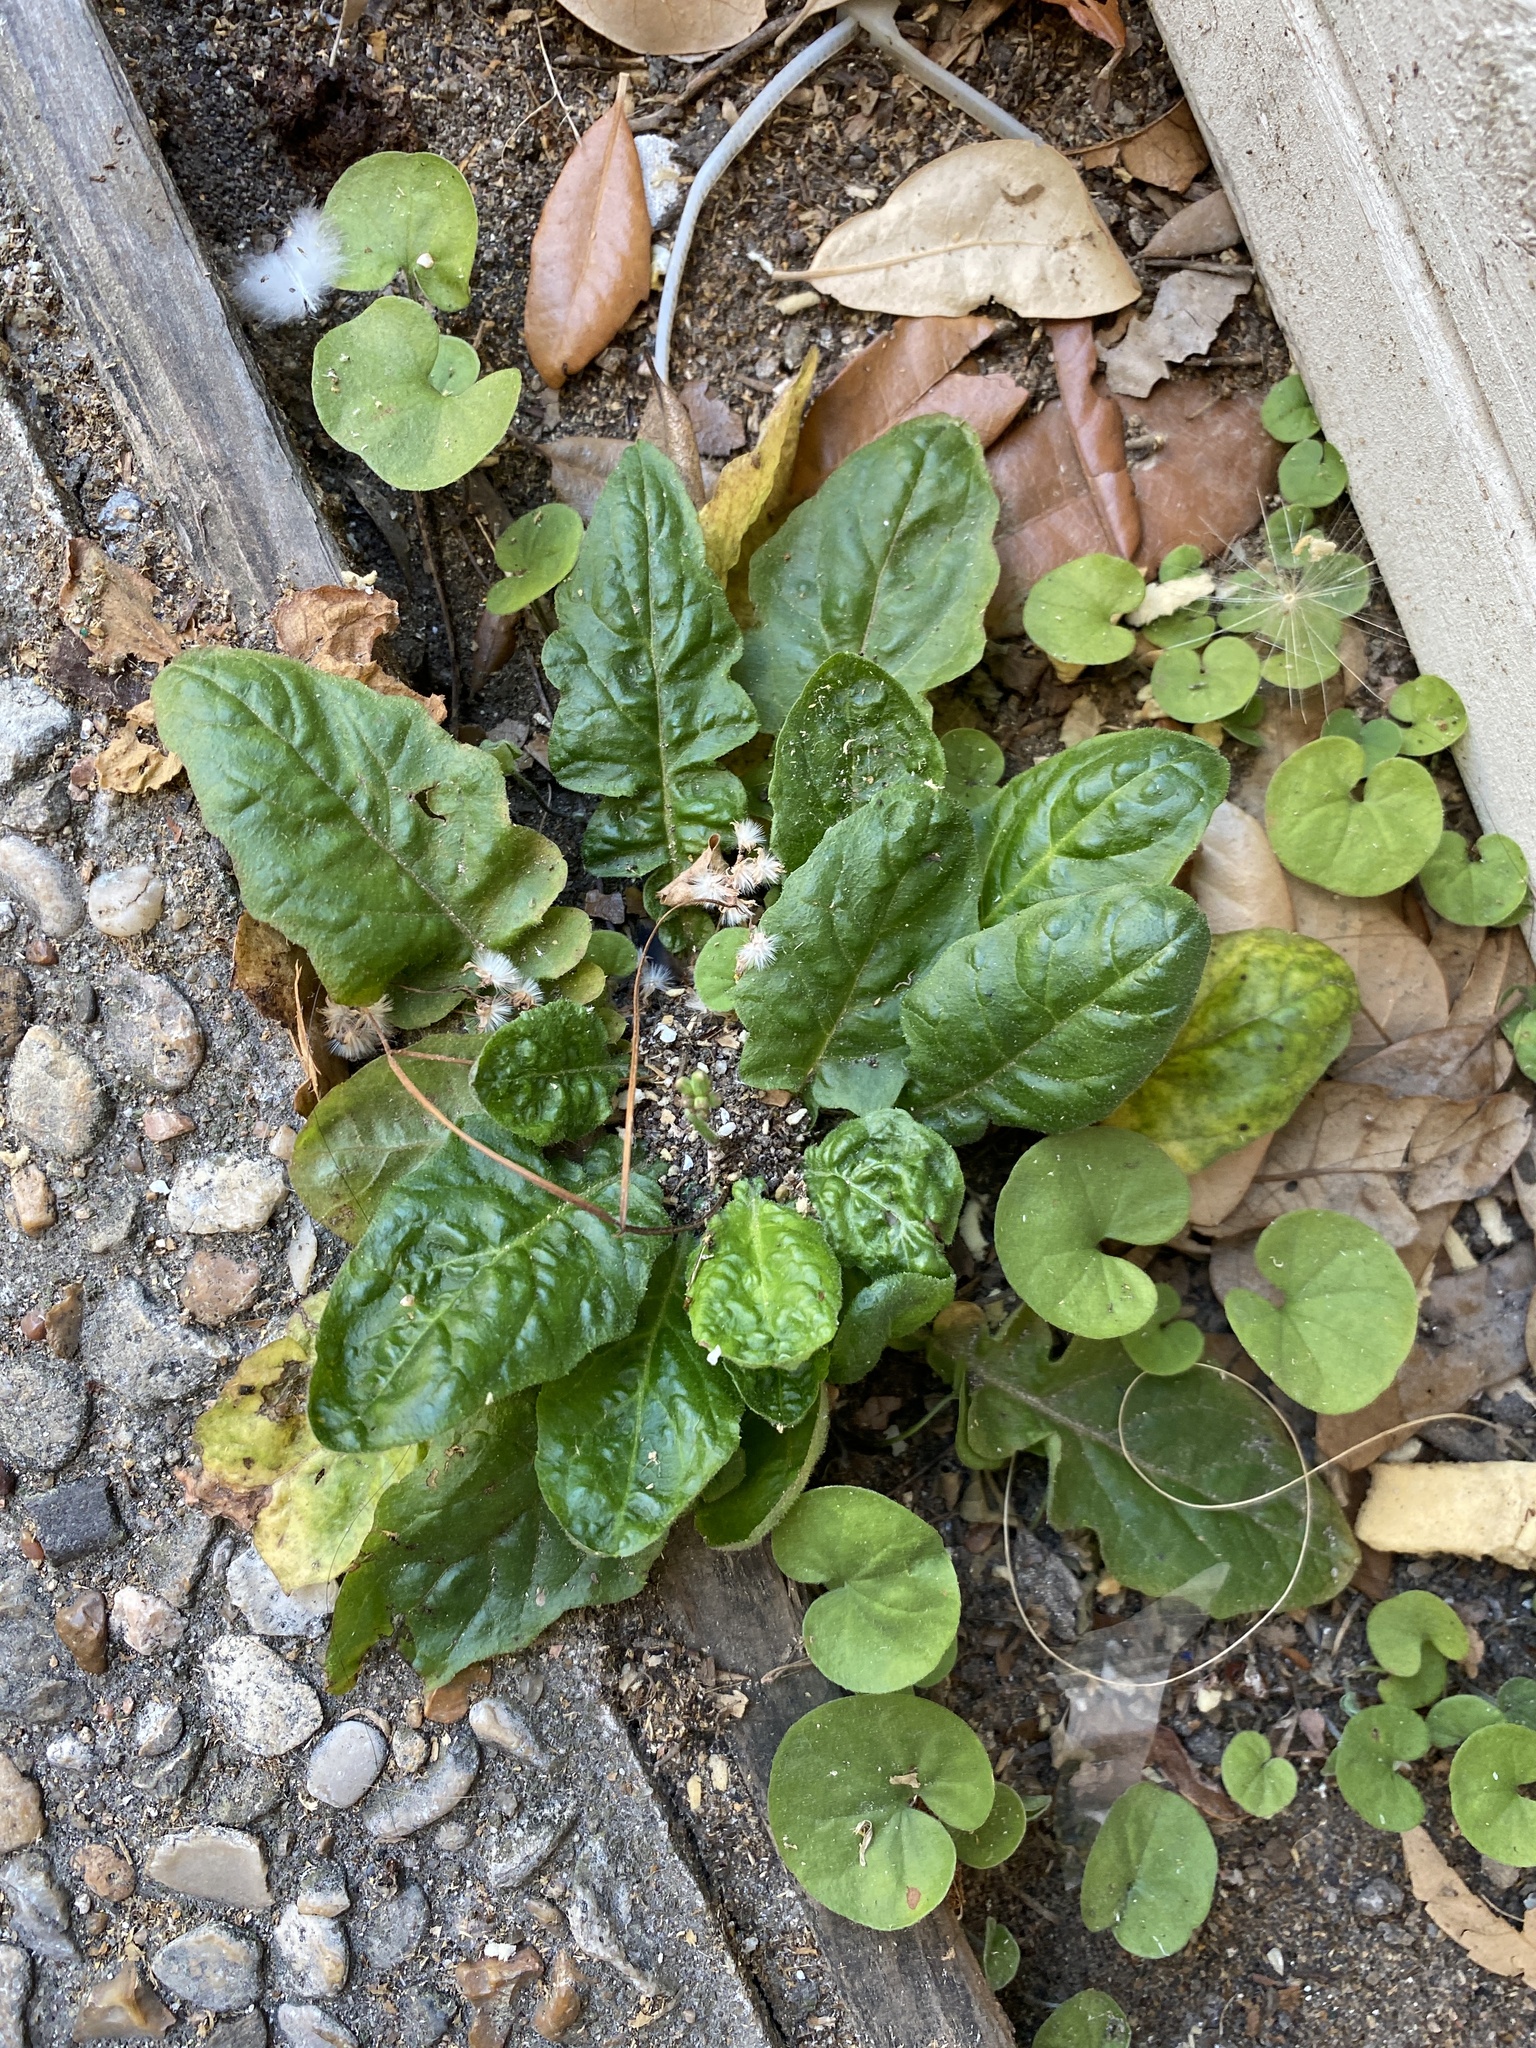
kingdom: Plantae
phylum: Tracheophyta
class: Magnoliopsida
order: Asterales
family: Asteraceae
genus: Youngia
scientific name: Youngia japonica
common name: Oriental false hawksbeard
